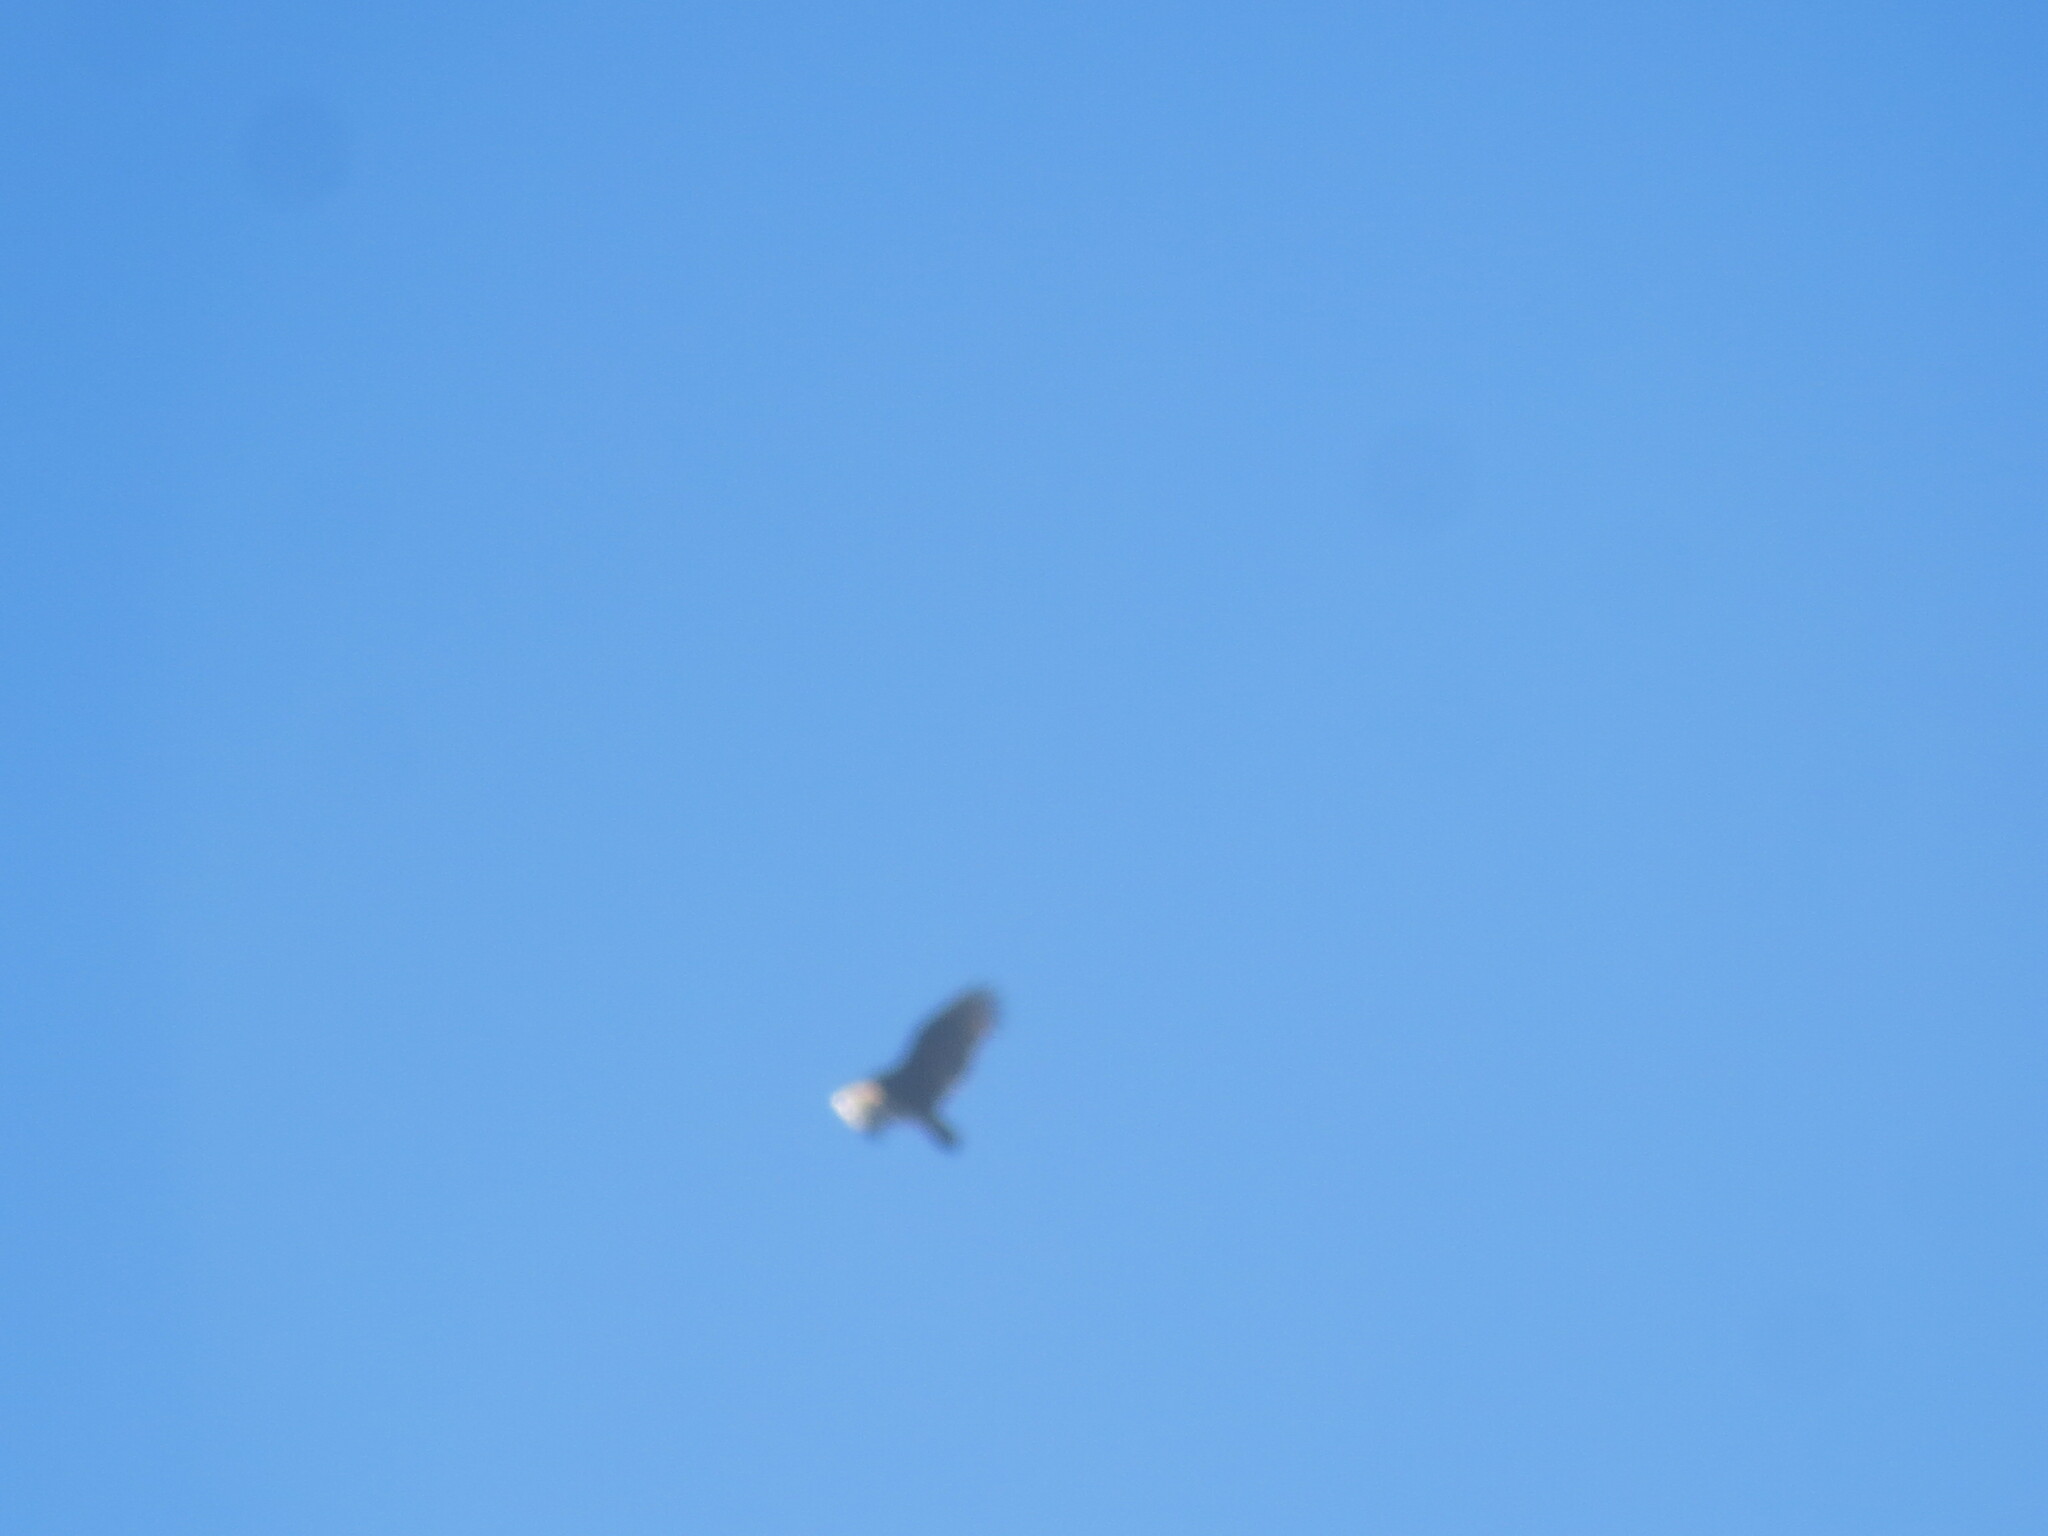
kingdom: Animalia
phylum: Chordata
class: Aves
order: Accipitriformes
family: Cathartidae
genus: Cathartes
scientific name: Cathartes aura
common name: Turkey vulture
